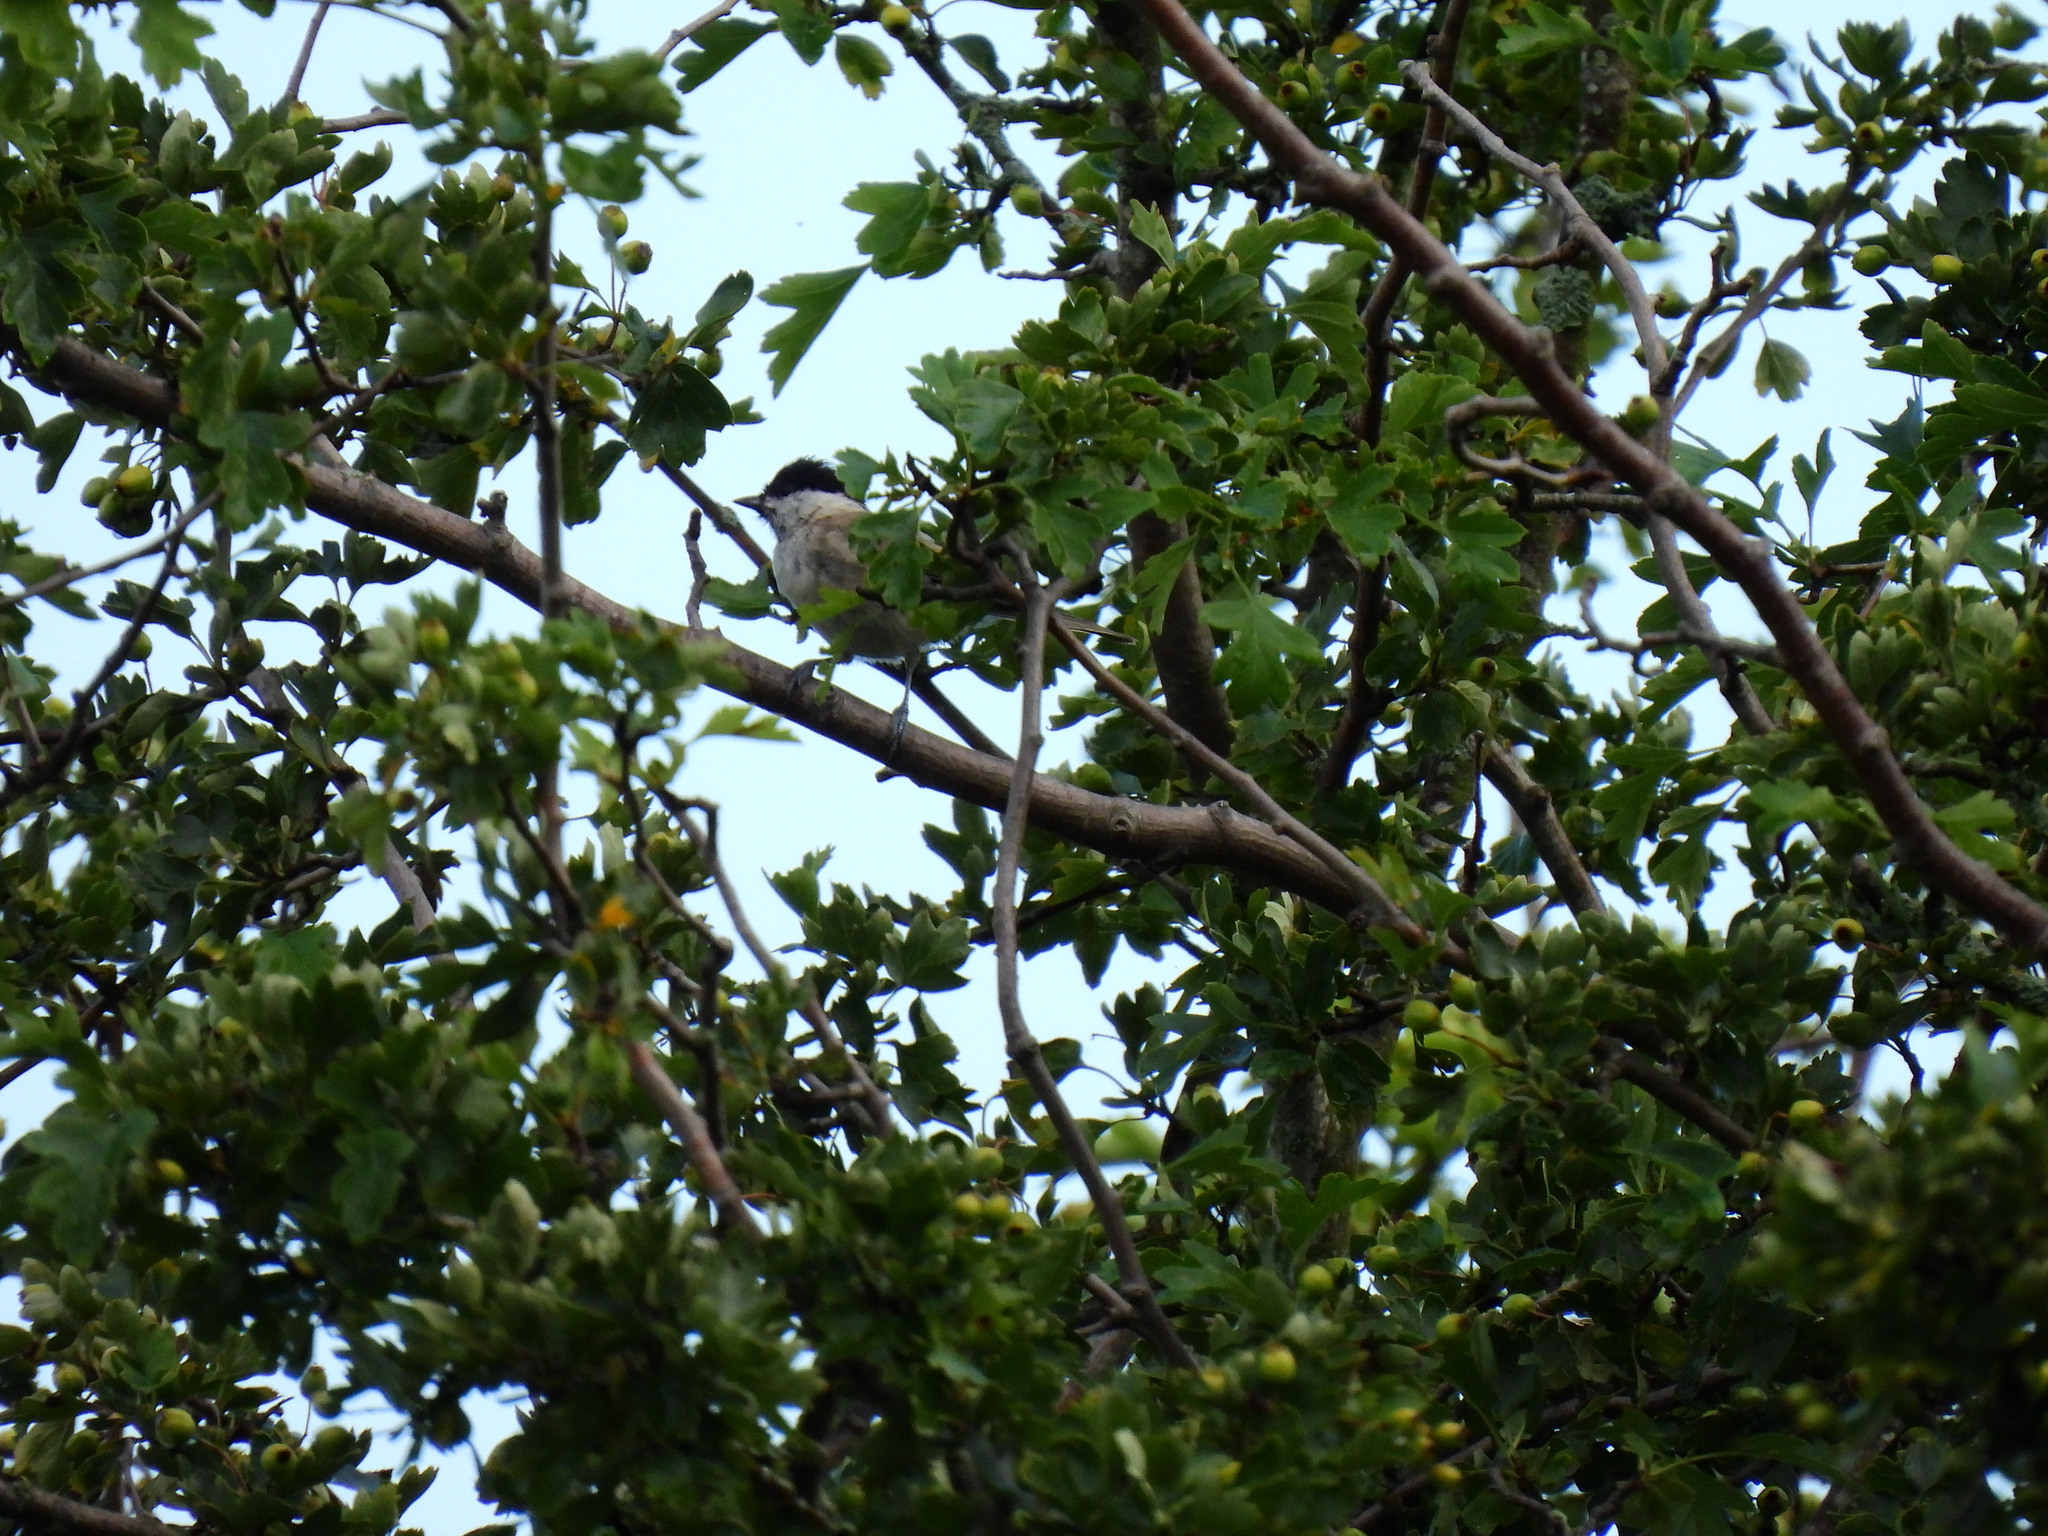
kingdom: Animalia
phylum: Chordata
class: Aves
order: Passeriformes
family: Paridae
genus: Poecile
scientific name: Poecile palustris
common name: Marsh tit
